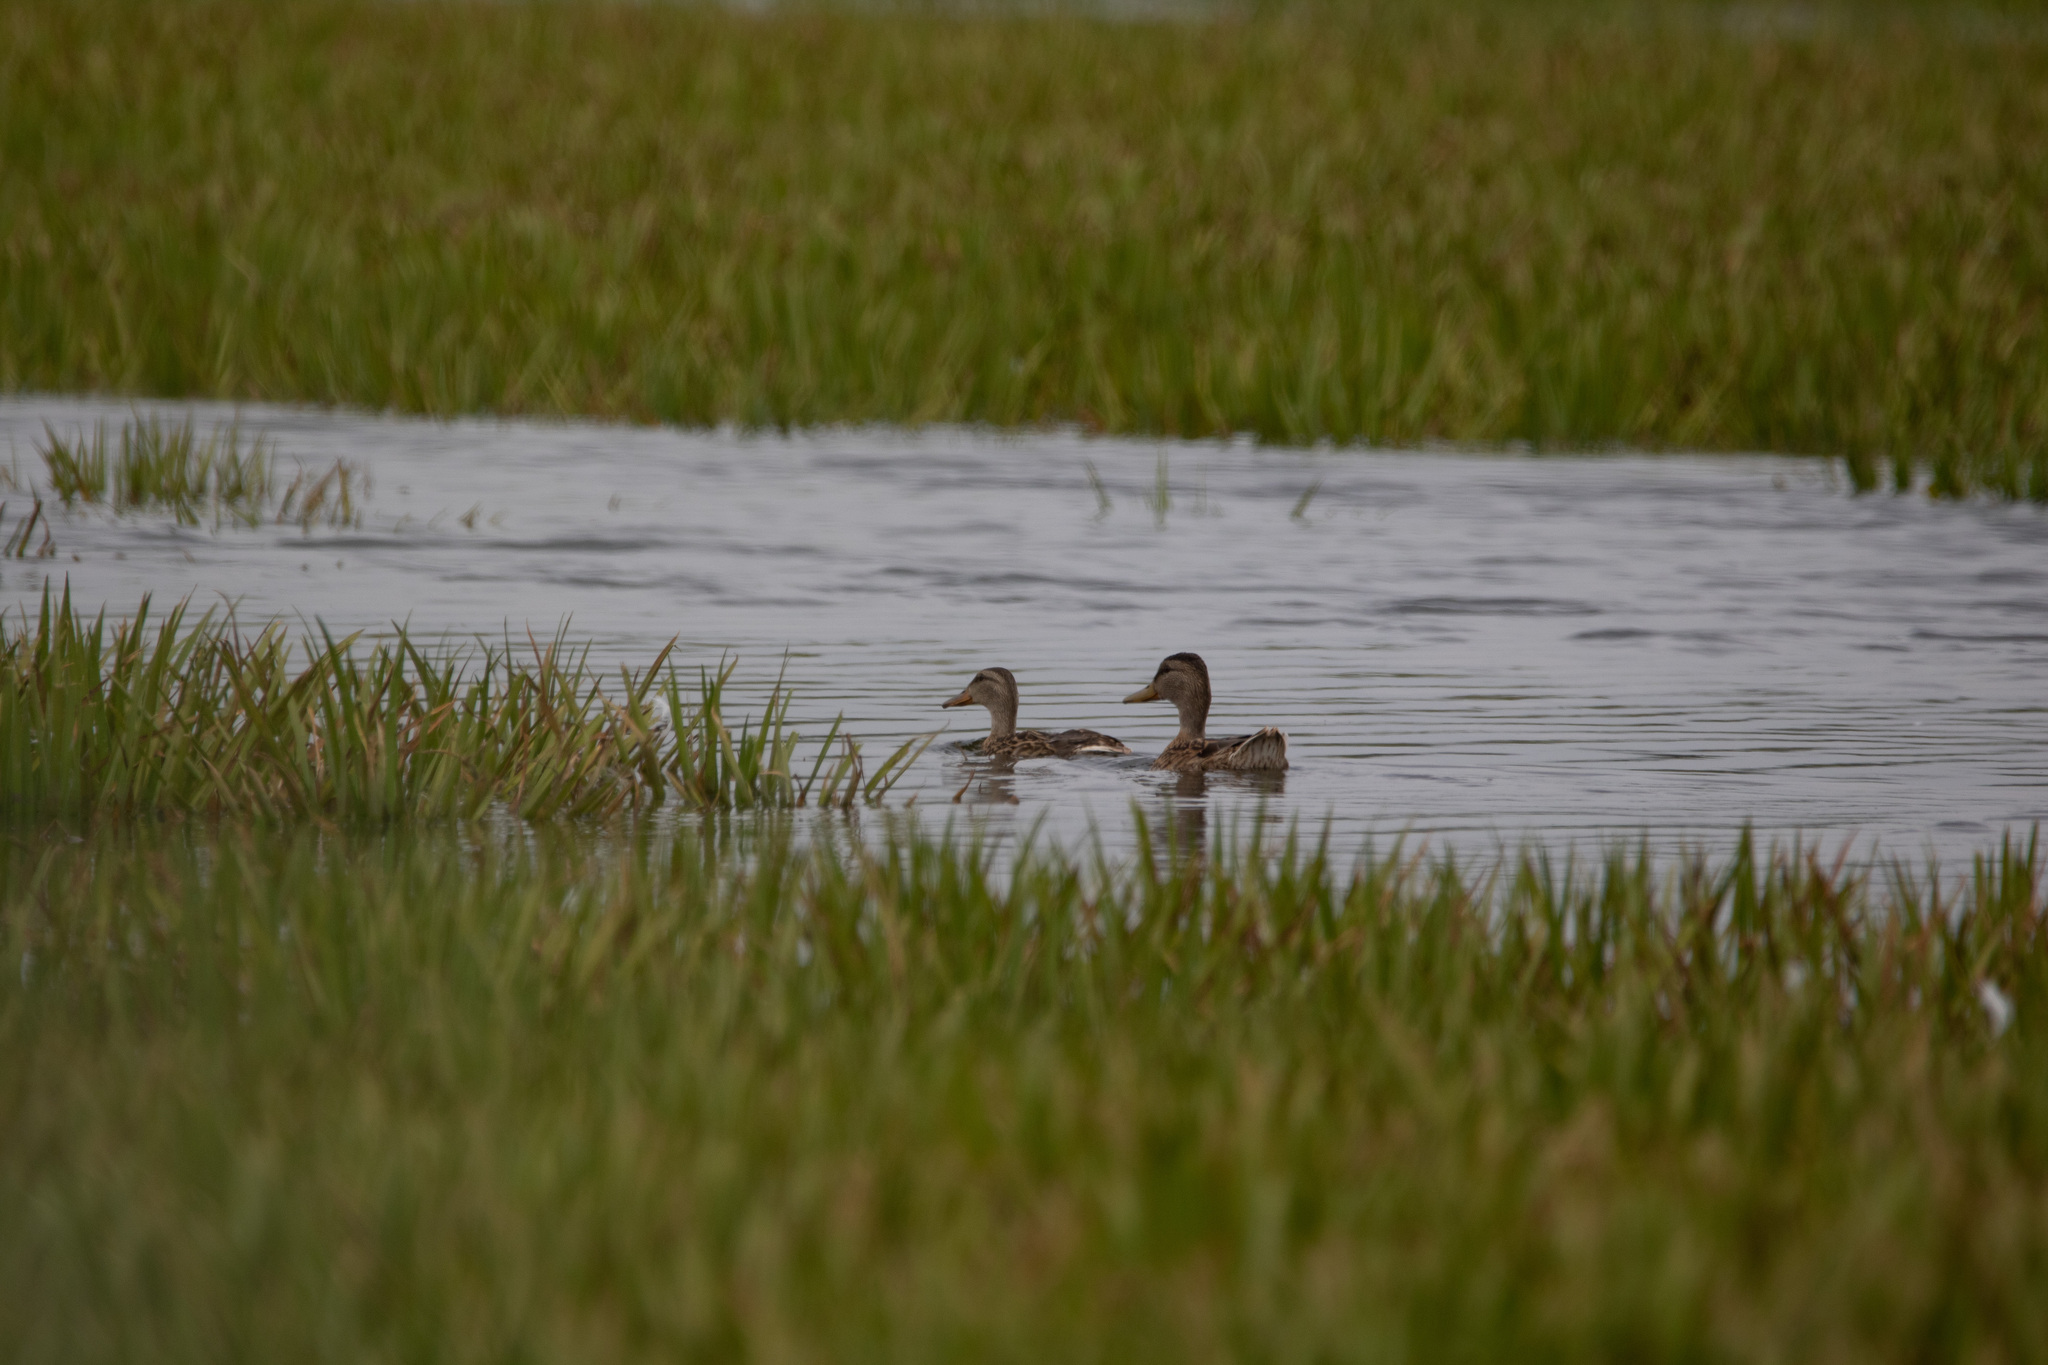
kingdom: Animalia
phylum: Chordata
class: Aves
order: Anseriformes
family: Anatidae
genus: Anas
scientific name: Anas platyrhynchos
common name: Mallard
